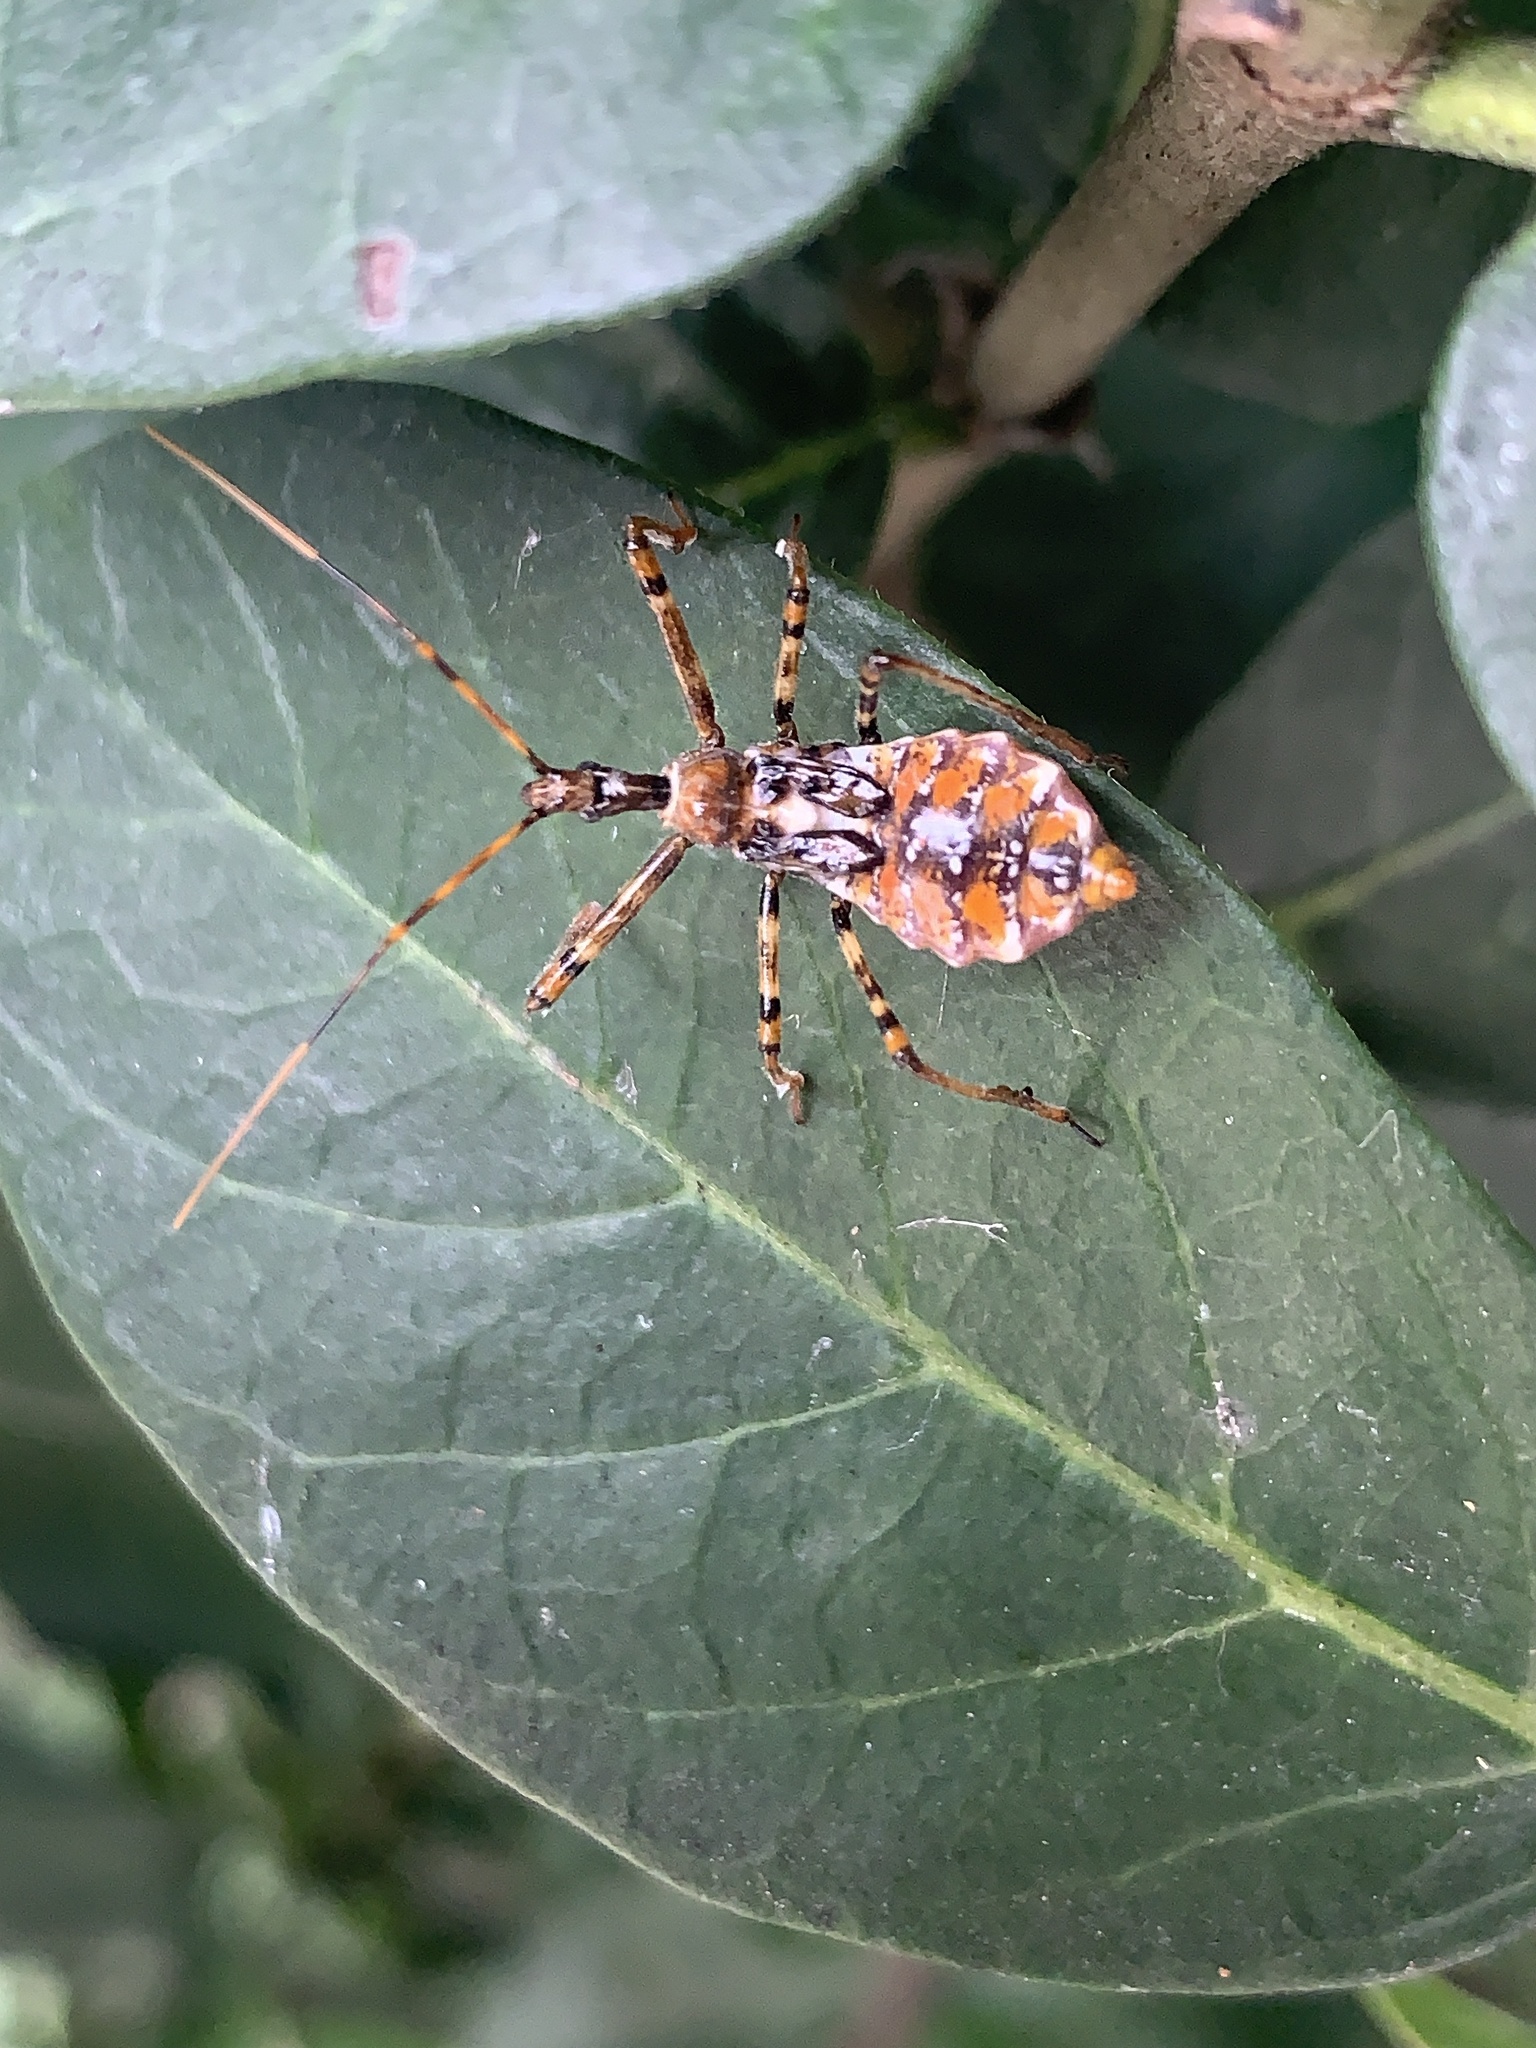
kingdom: Animalia
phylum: Arthropoda
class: Insecta
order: Hemiptera
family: Reduviidae
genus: Pristhesancus
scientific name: Pristhesancus plagipennis
